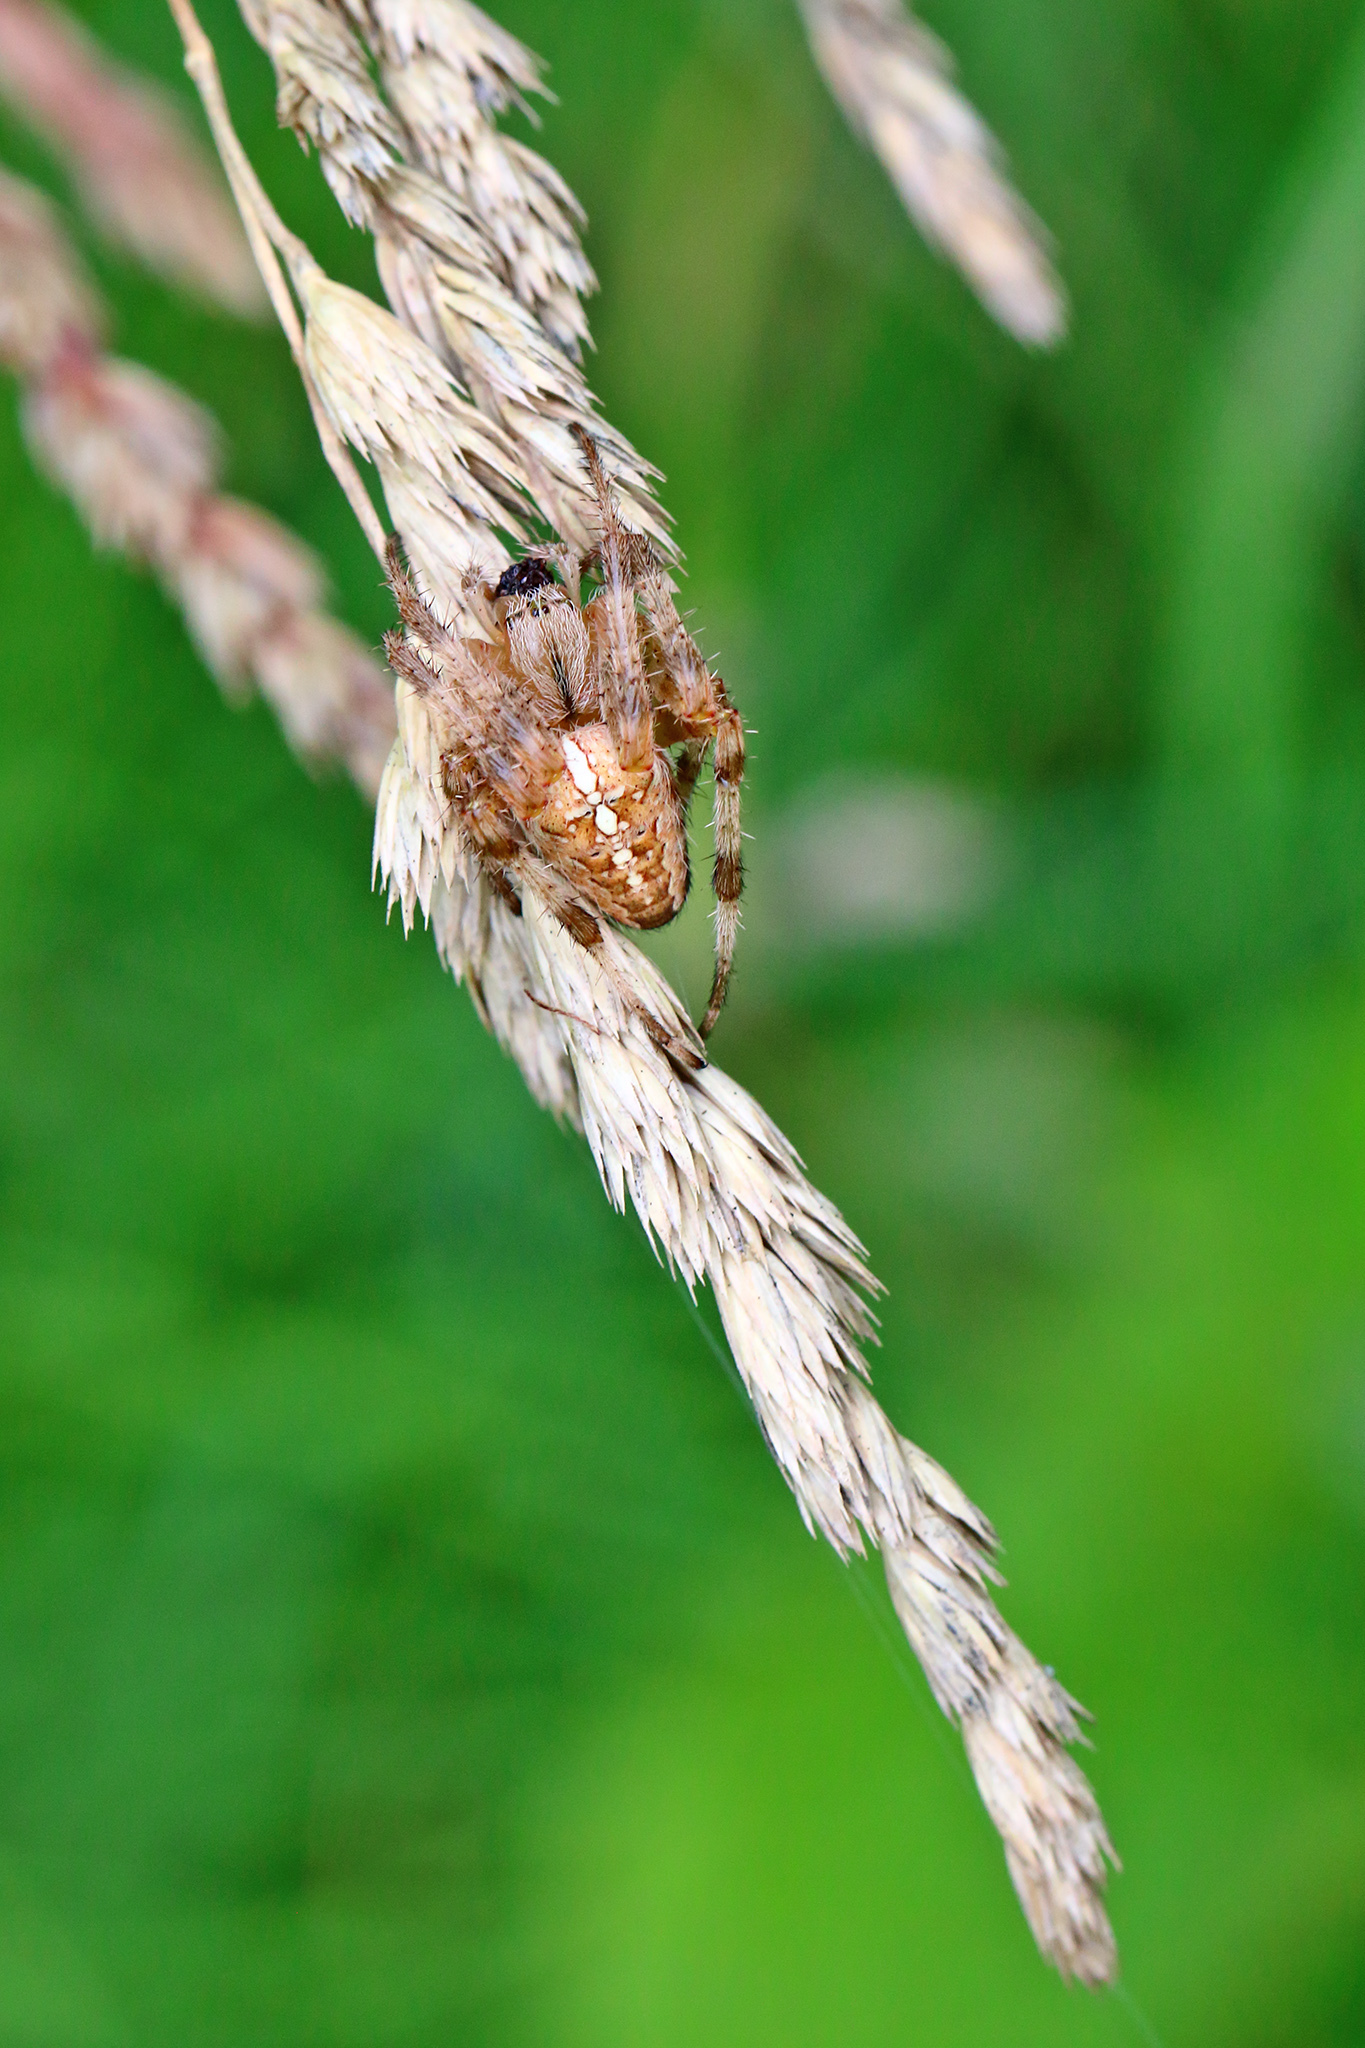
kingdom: Animalia
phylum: Arthropoda
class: Arachnida
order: Araneae
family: Araneidae
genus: Araneus
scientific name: Araneus diadematus
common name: Cross orbweaver
